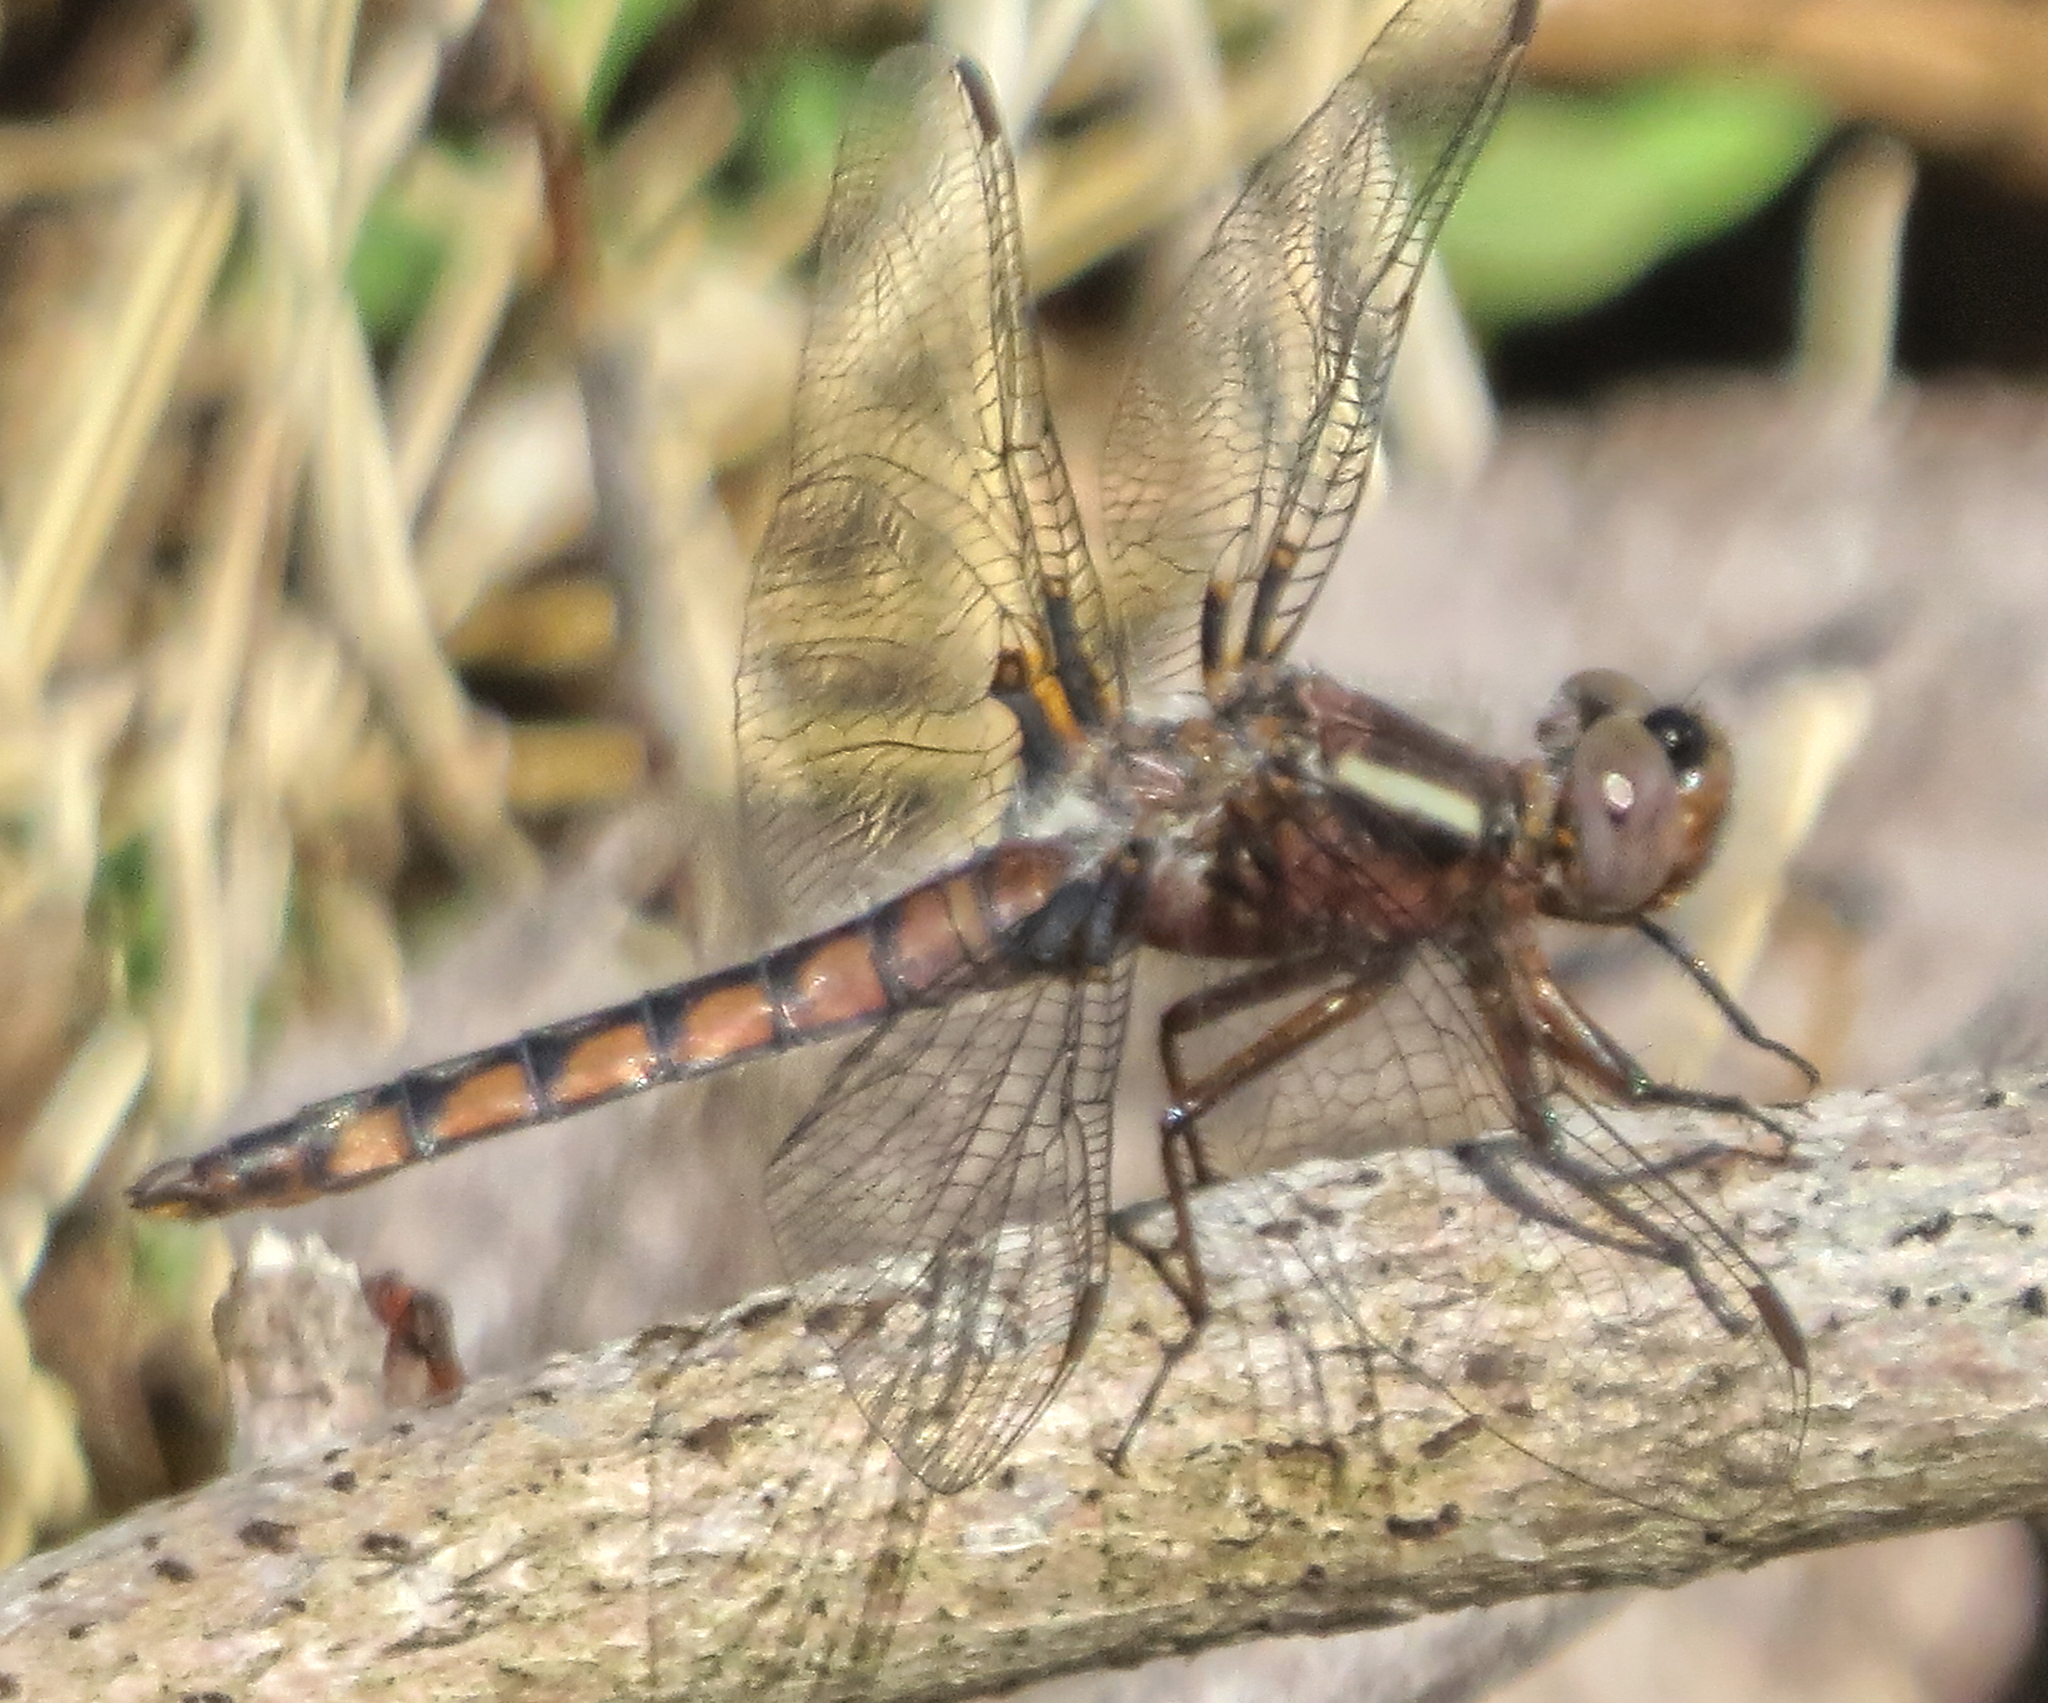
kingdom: Animalia
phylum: Arthropoda
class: Insecta
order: Odonata
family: Libellulidae
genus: Ladona
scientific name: Ladona deplanata
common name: Blue corporal
